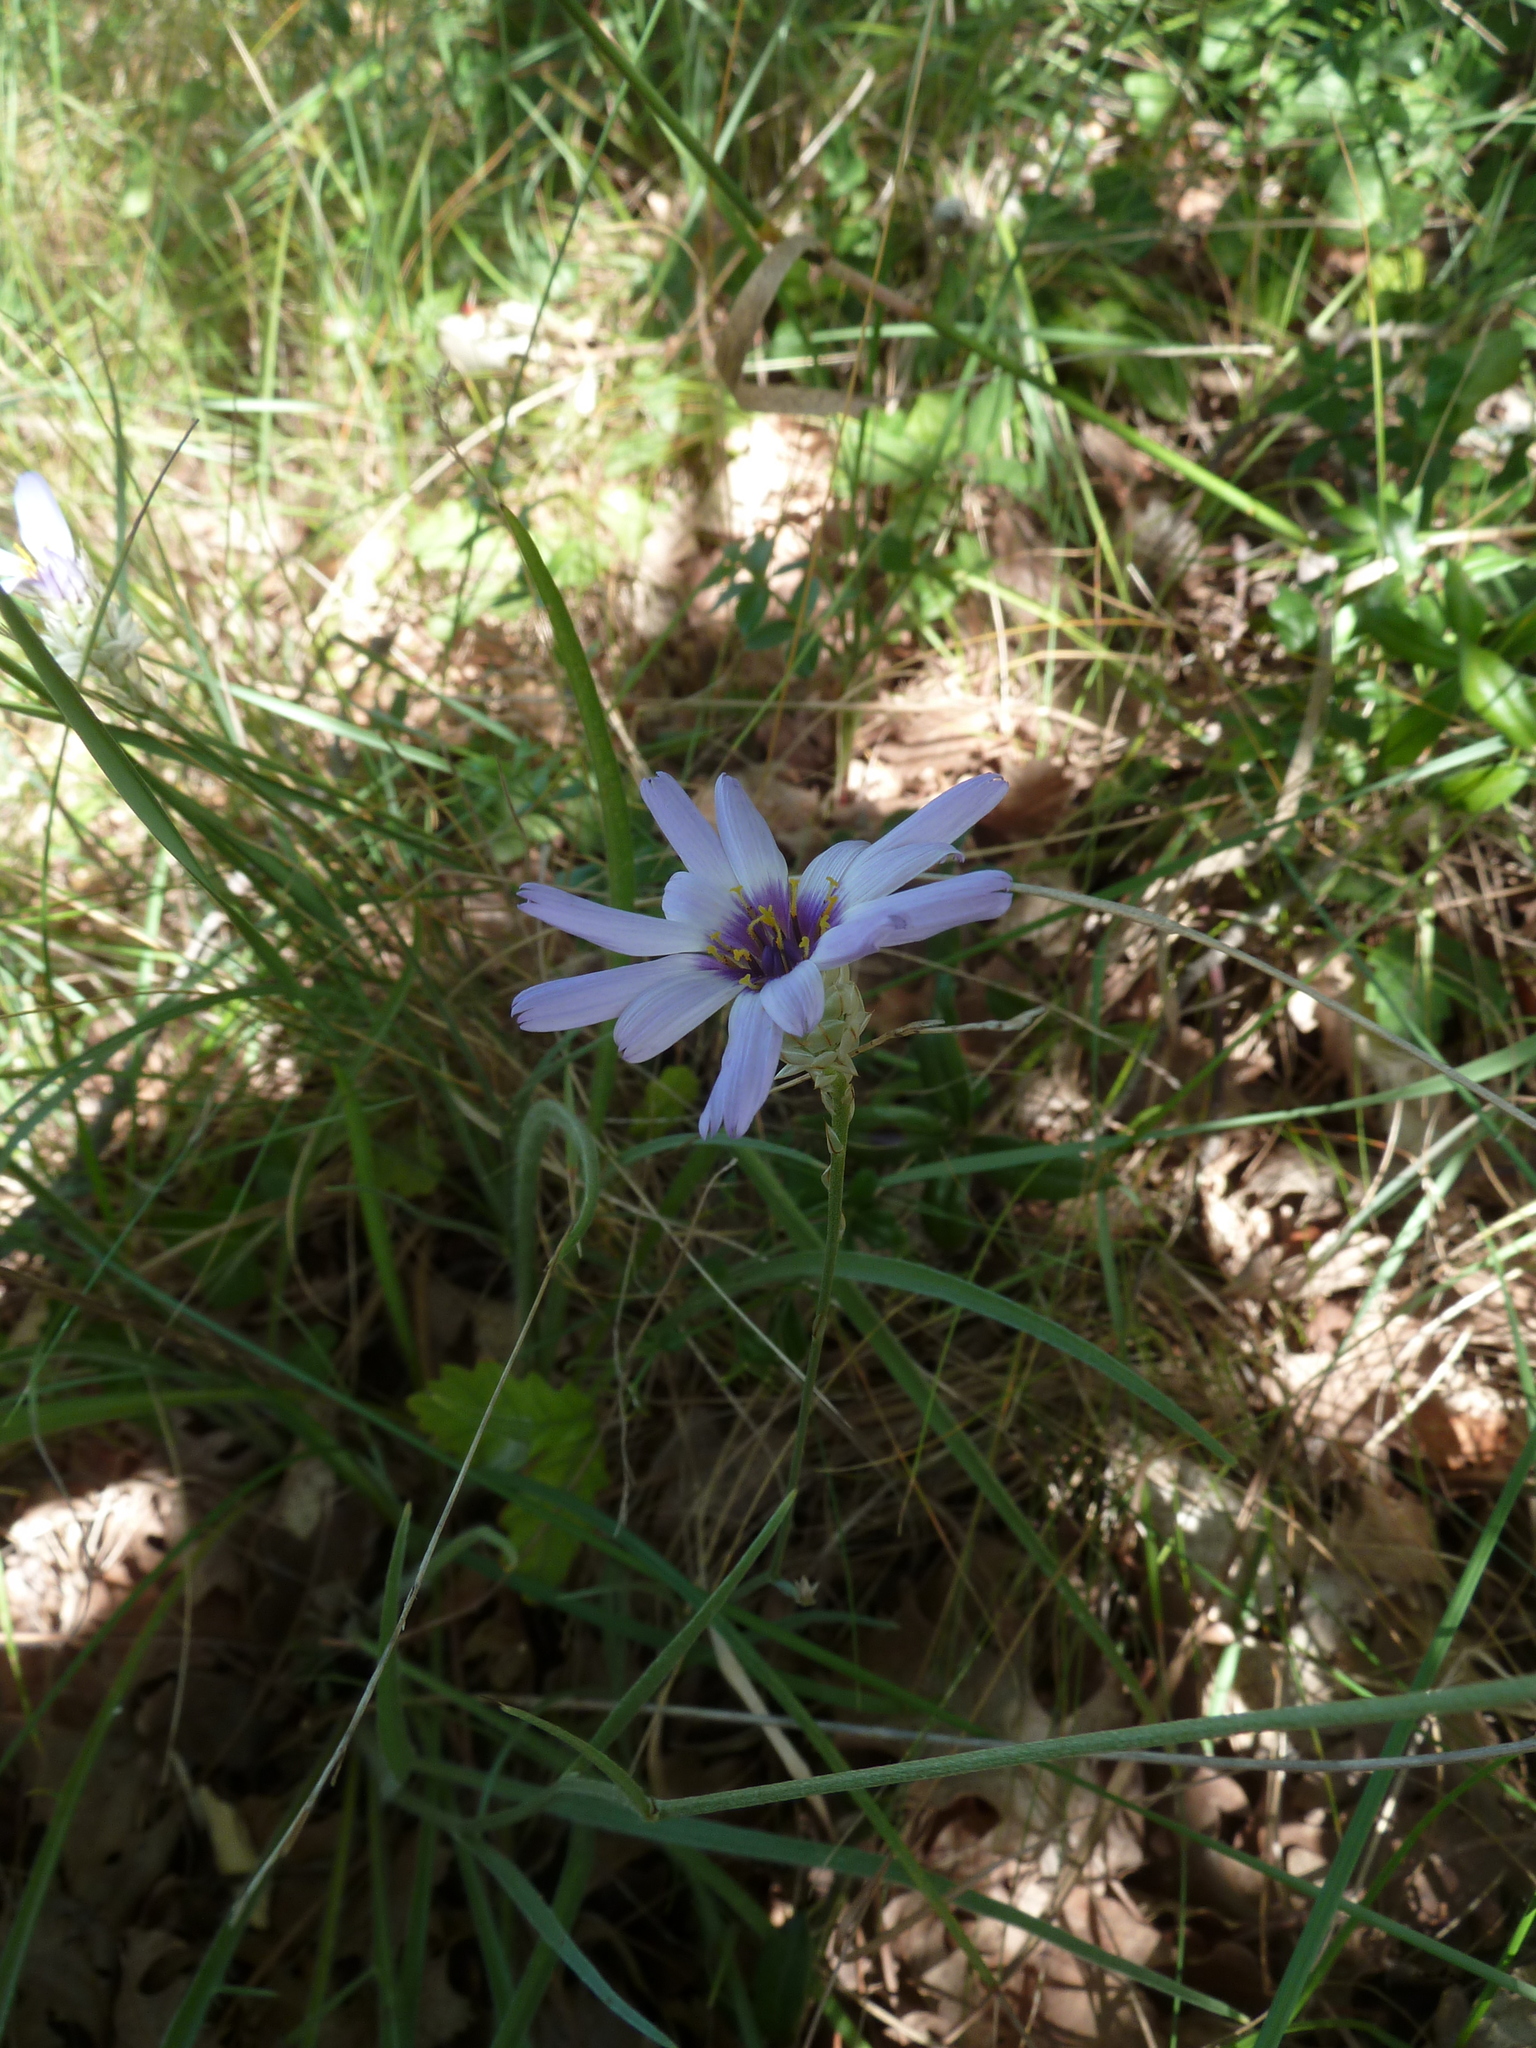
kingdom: Plantae
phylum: Tracheophyta
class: Magnoliopsida
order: Asterales
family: Asteraceae
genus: Catananche
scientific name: Catananche caerulea
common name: Blue cupidone
